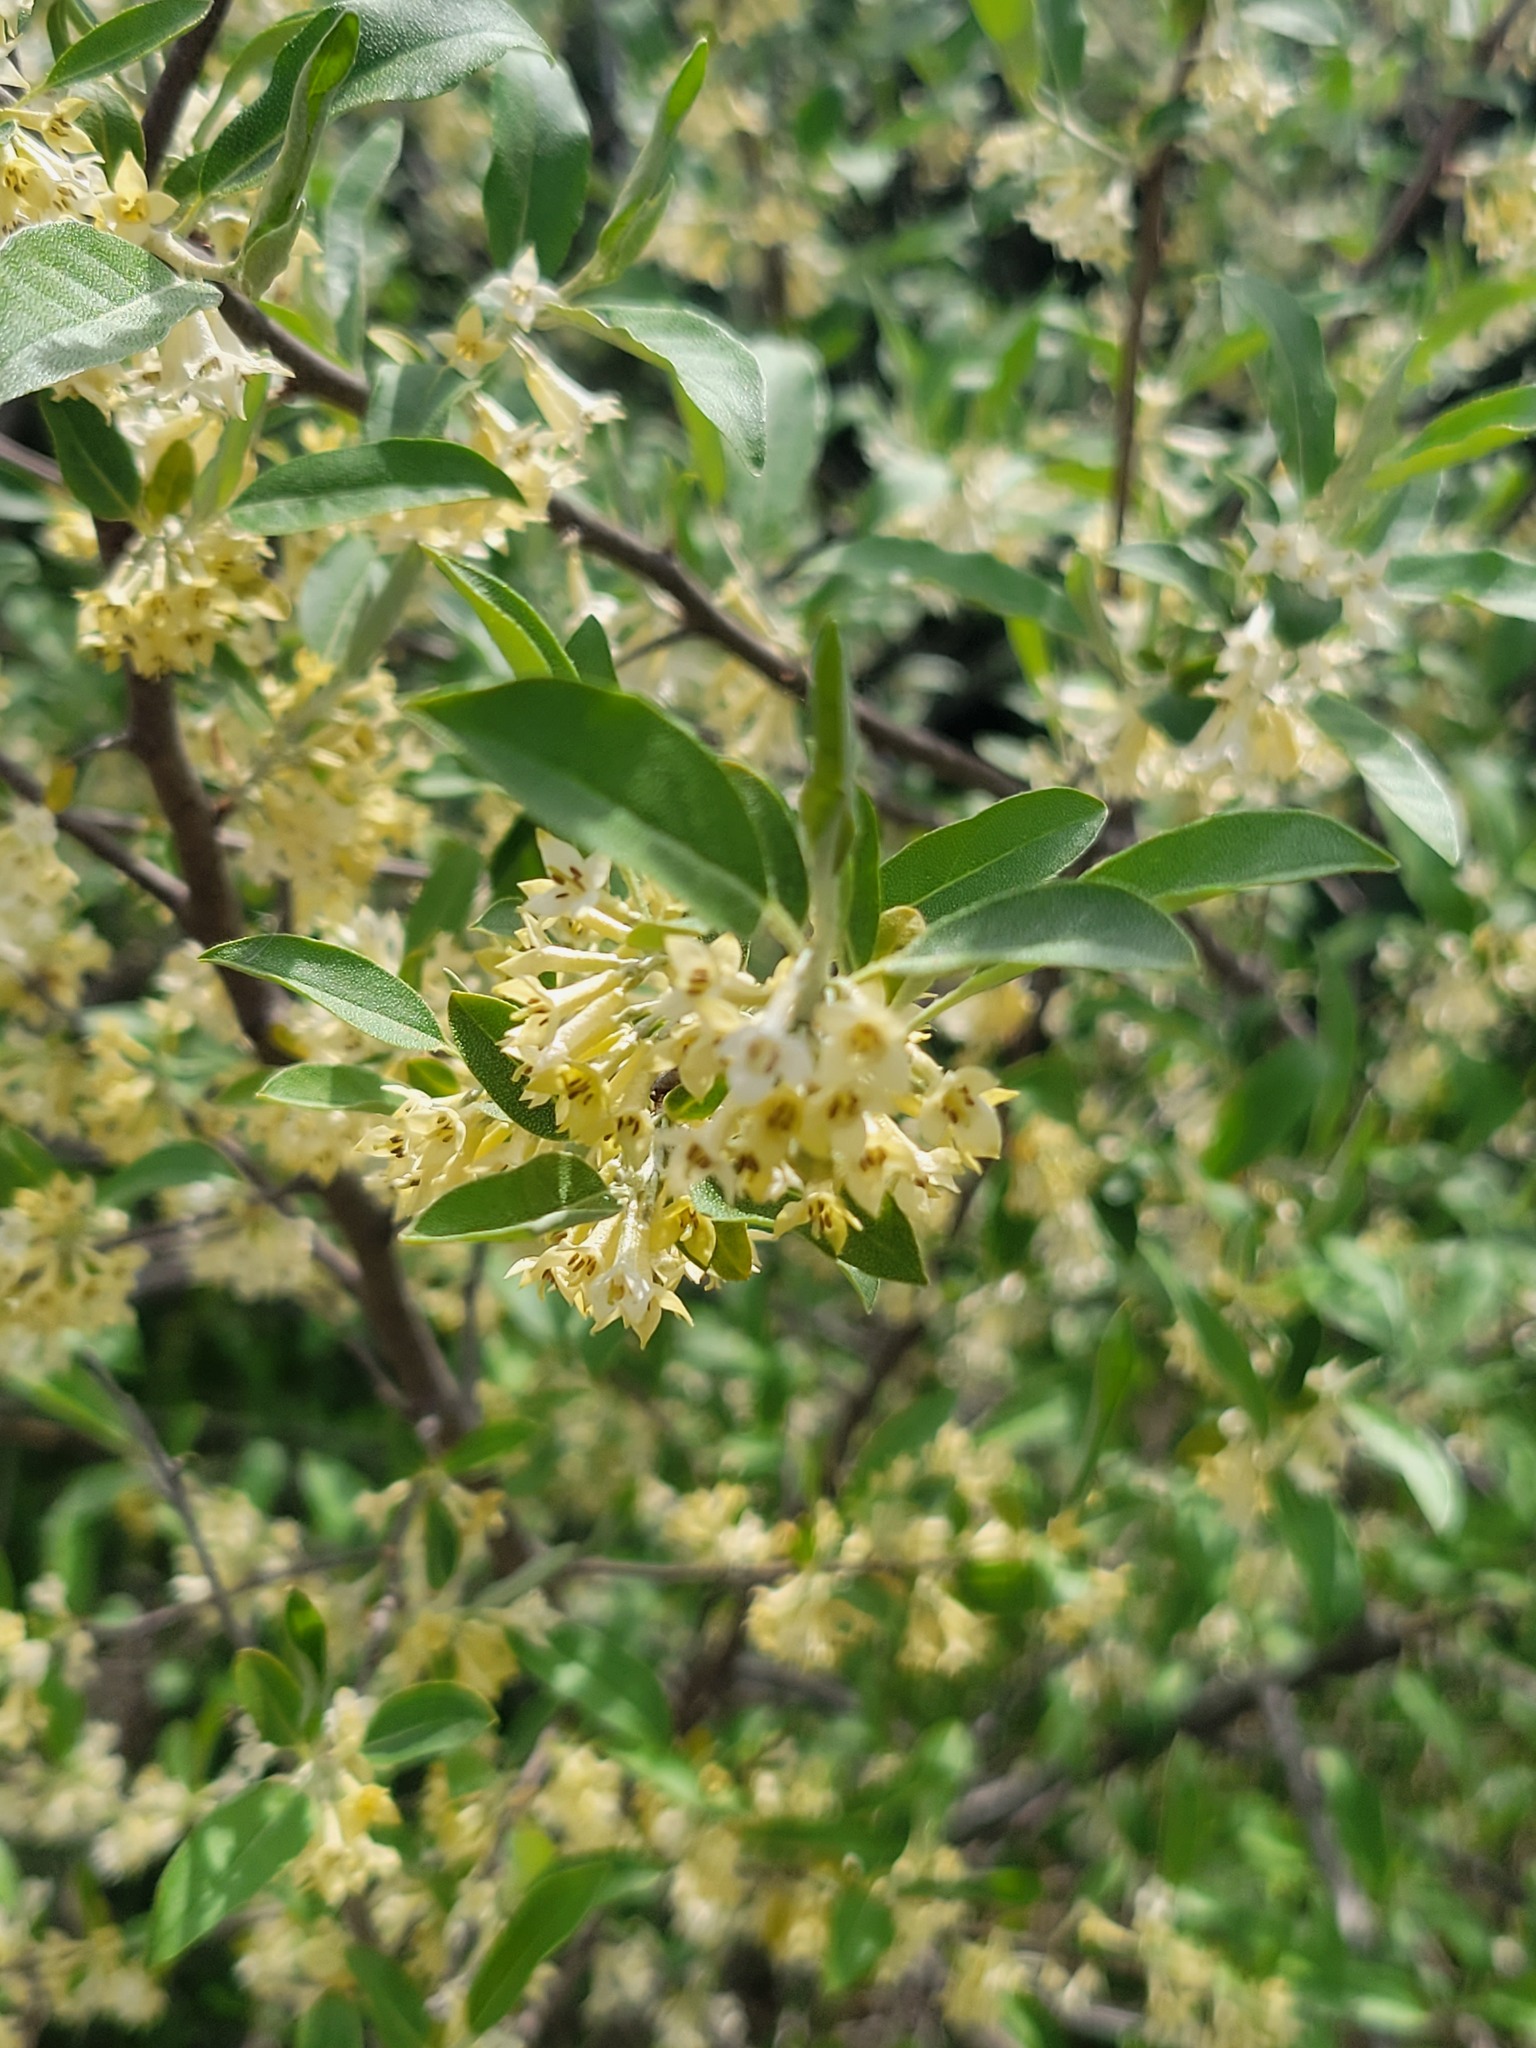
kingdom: Plantae
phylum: Tracheophyta
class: Magnoliopsida
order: Rosales
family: Elaeagnaceae
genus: Elaeagnus
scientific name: Elaeagnus umbellata
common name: Autumn olive
